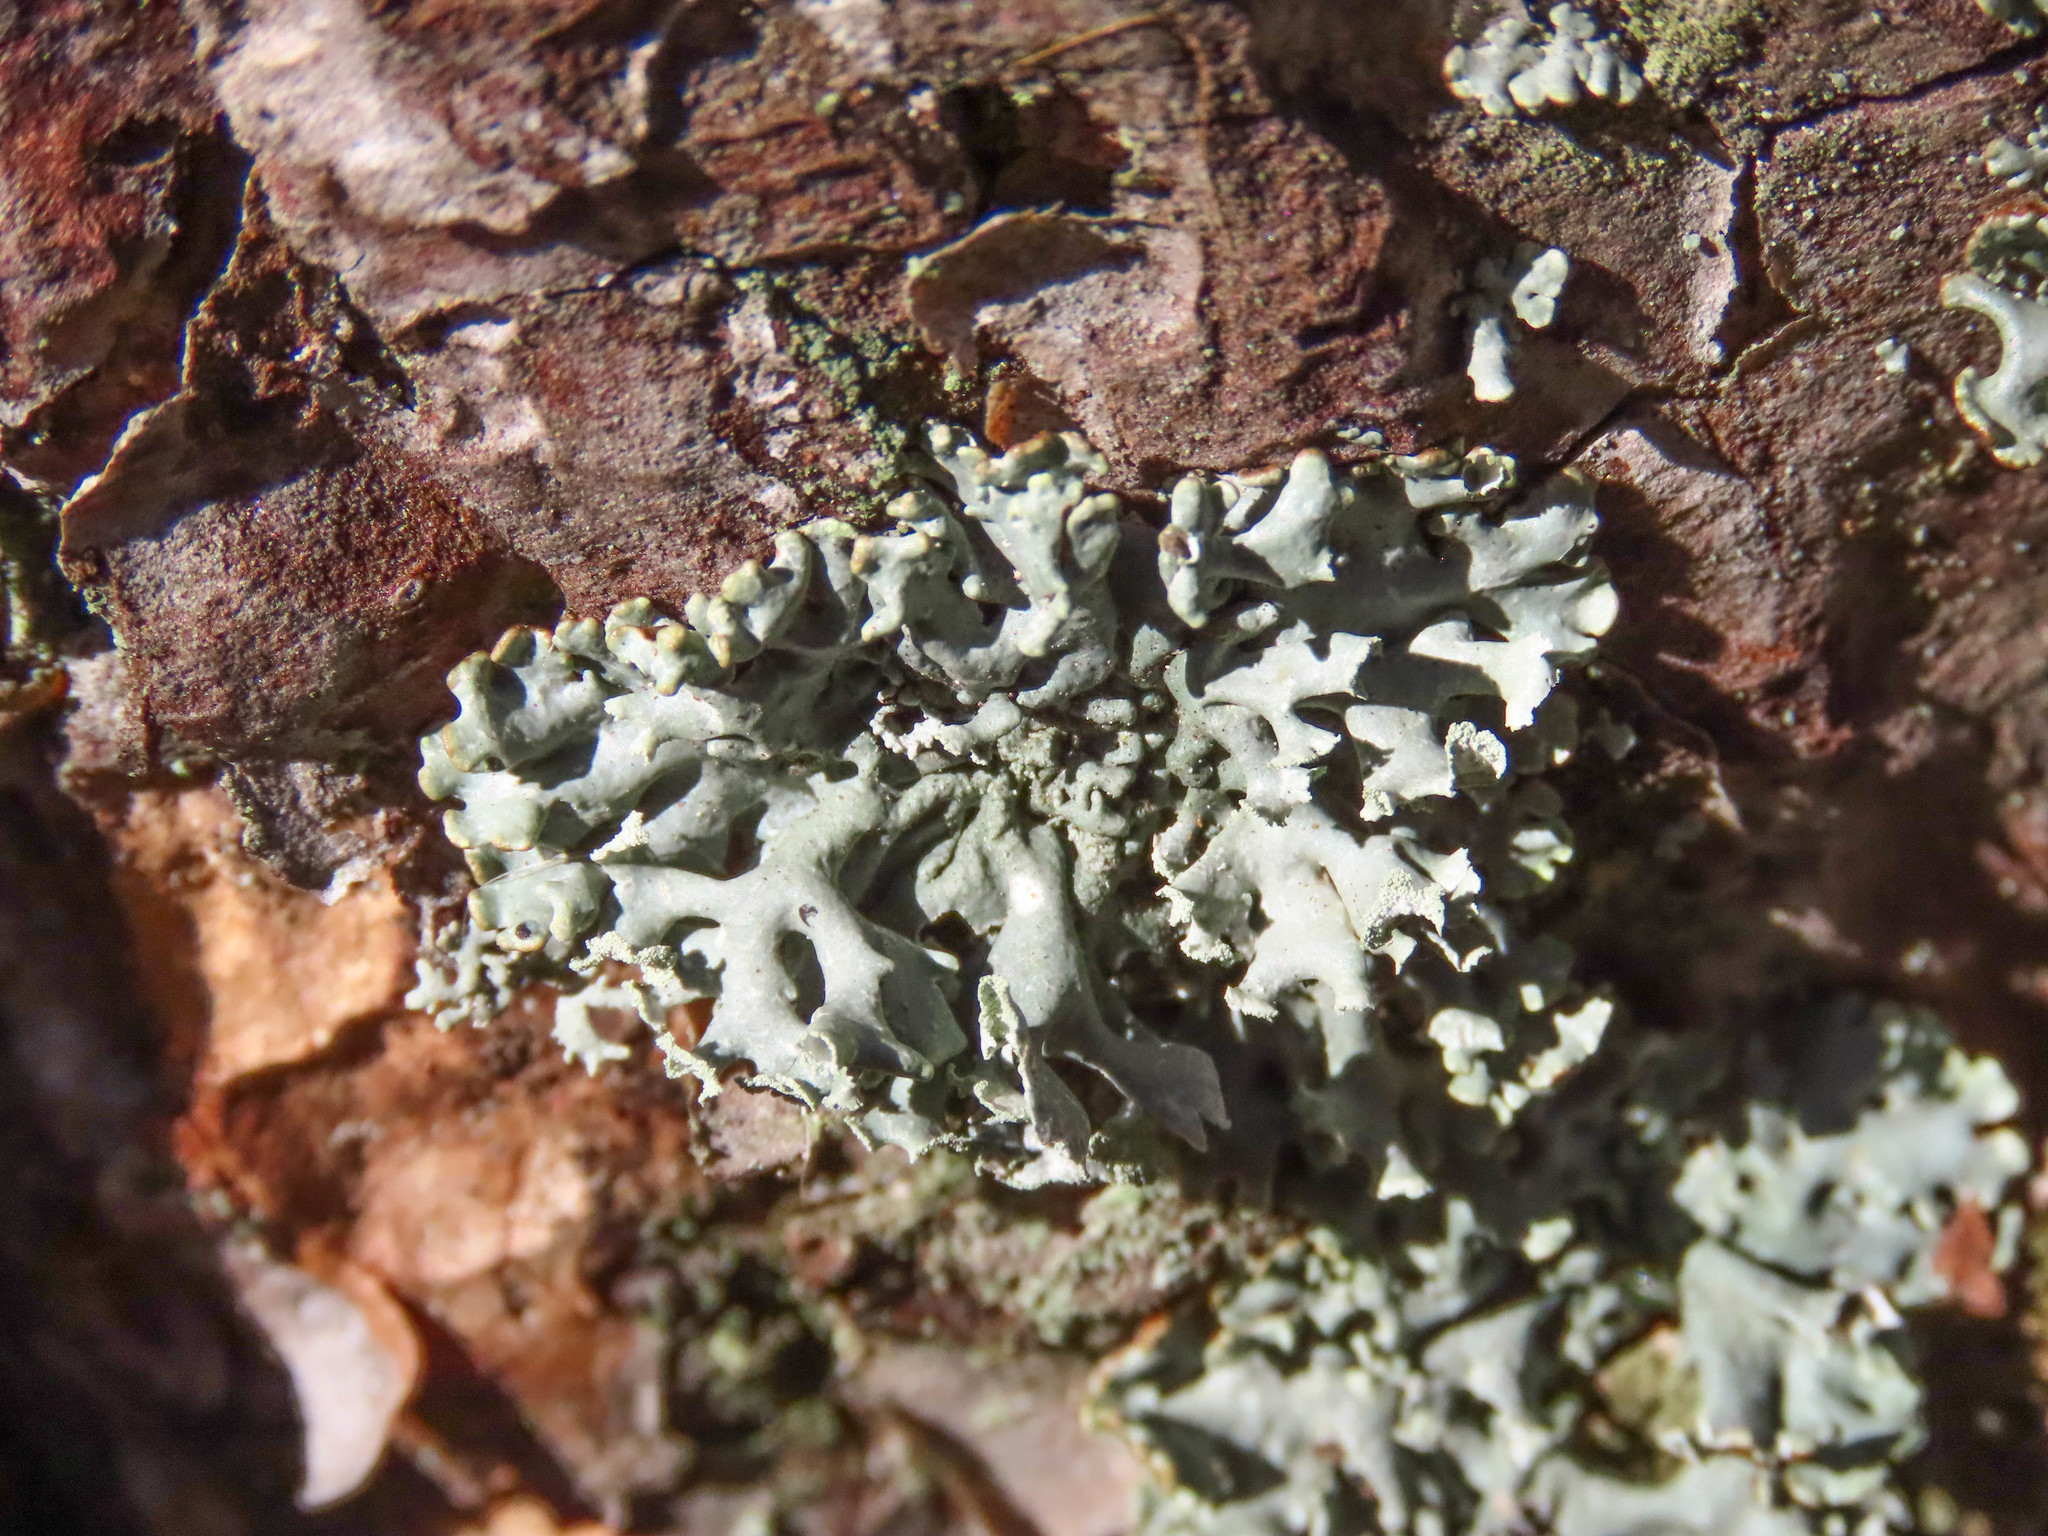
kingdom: Fungi
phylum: Ascomycota
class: Lecanoromycetes
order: Lecanorales
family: Parmeliaceae
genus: Hypogymnia
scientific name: Hypogymnia physodes
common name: Dark crottle
